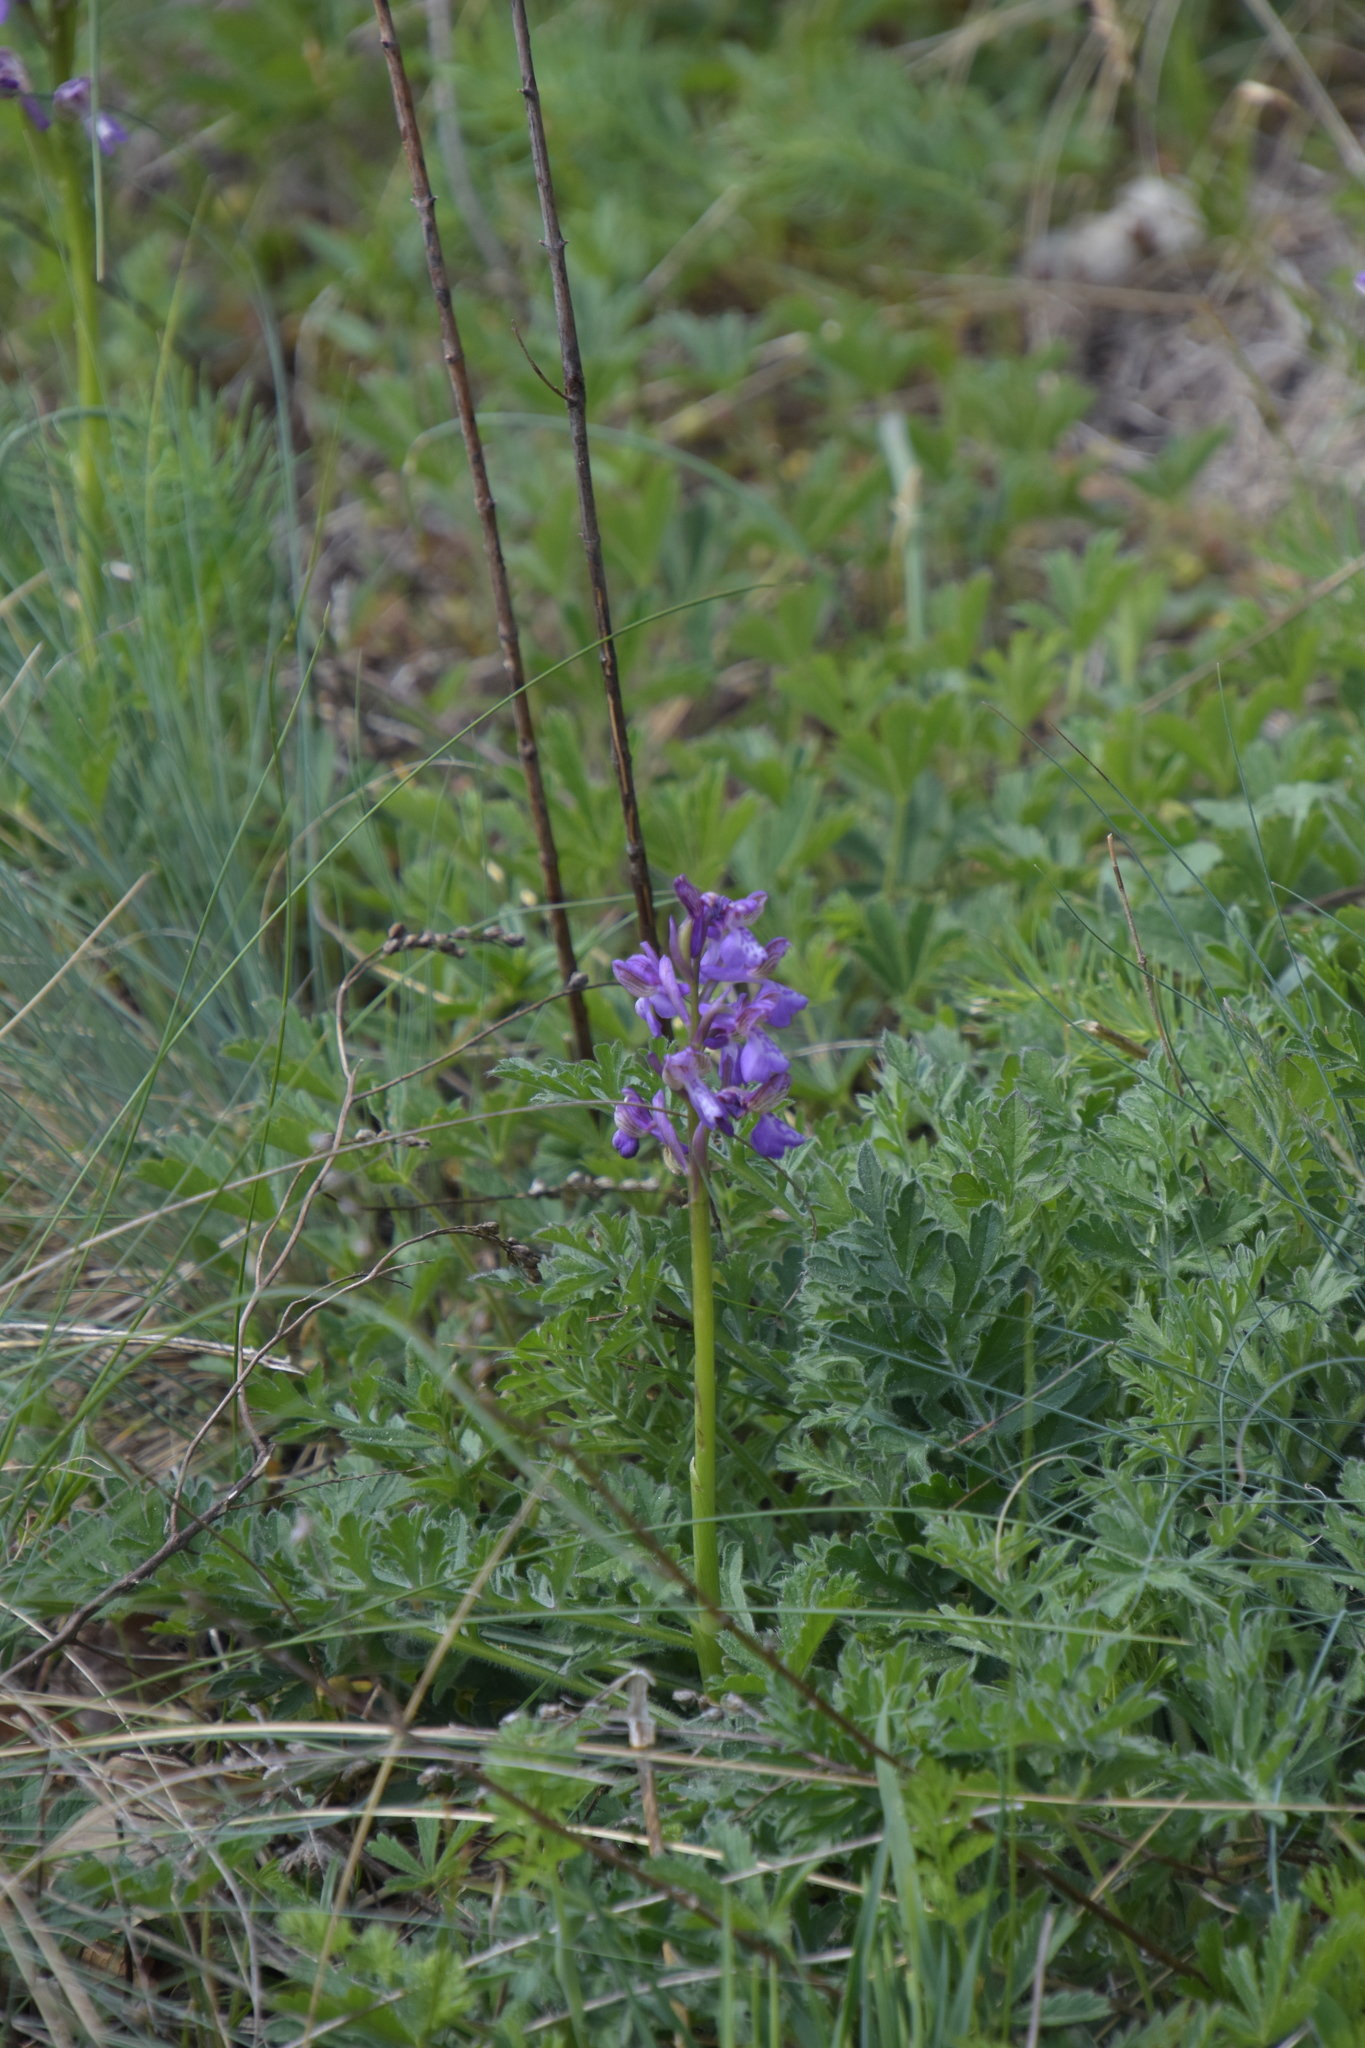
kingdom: Plantae
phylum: Tracheophyta
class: Liliopsida
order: Asparagales
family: Orchidaceae
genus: Anacamptis
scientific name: Anacamptis morio
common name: Green-winged orchid
